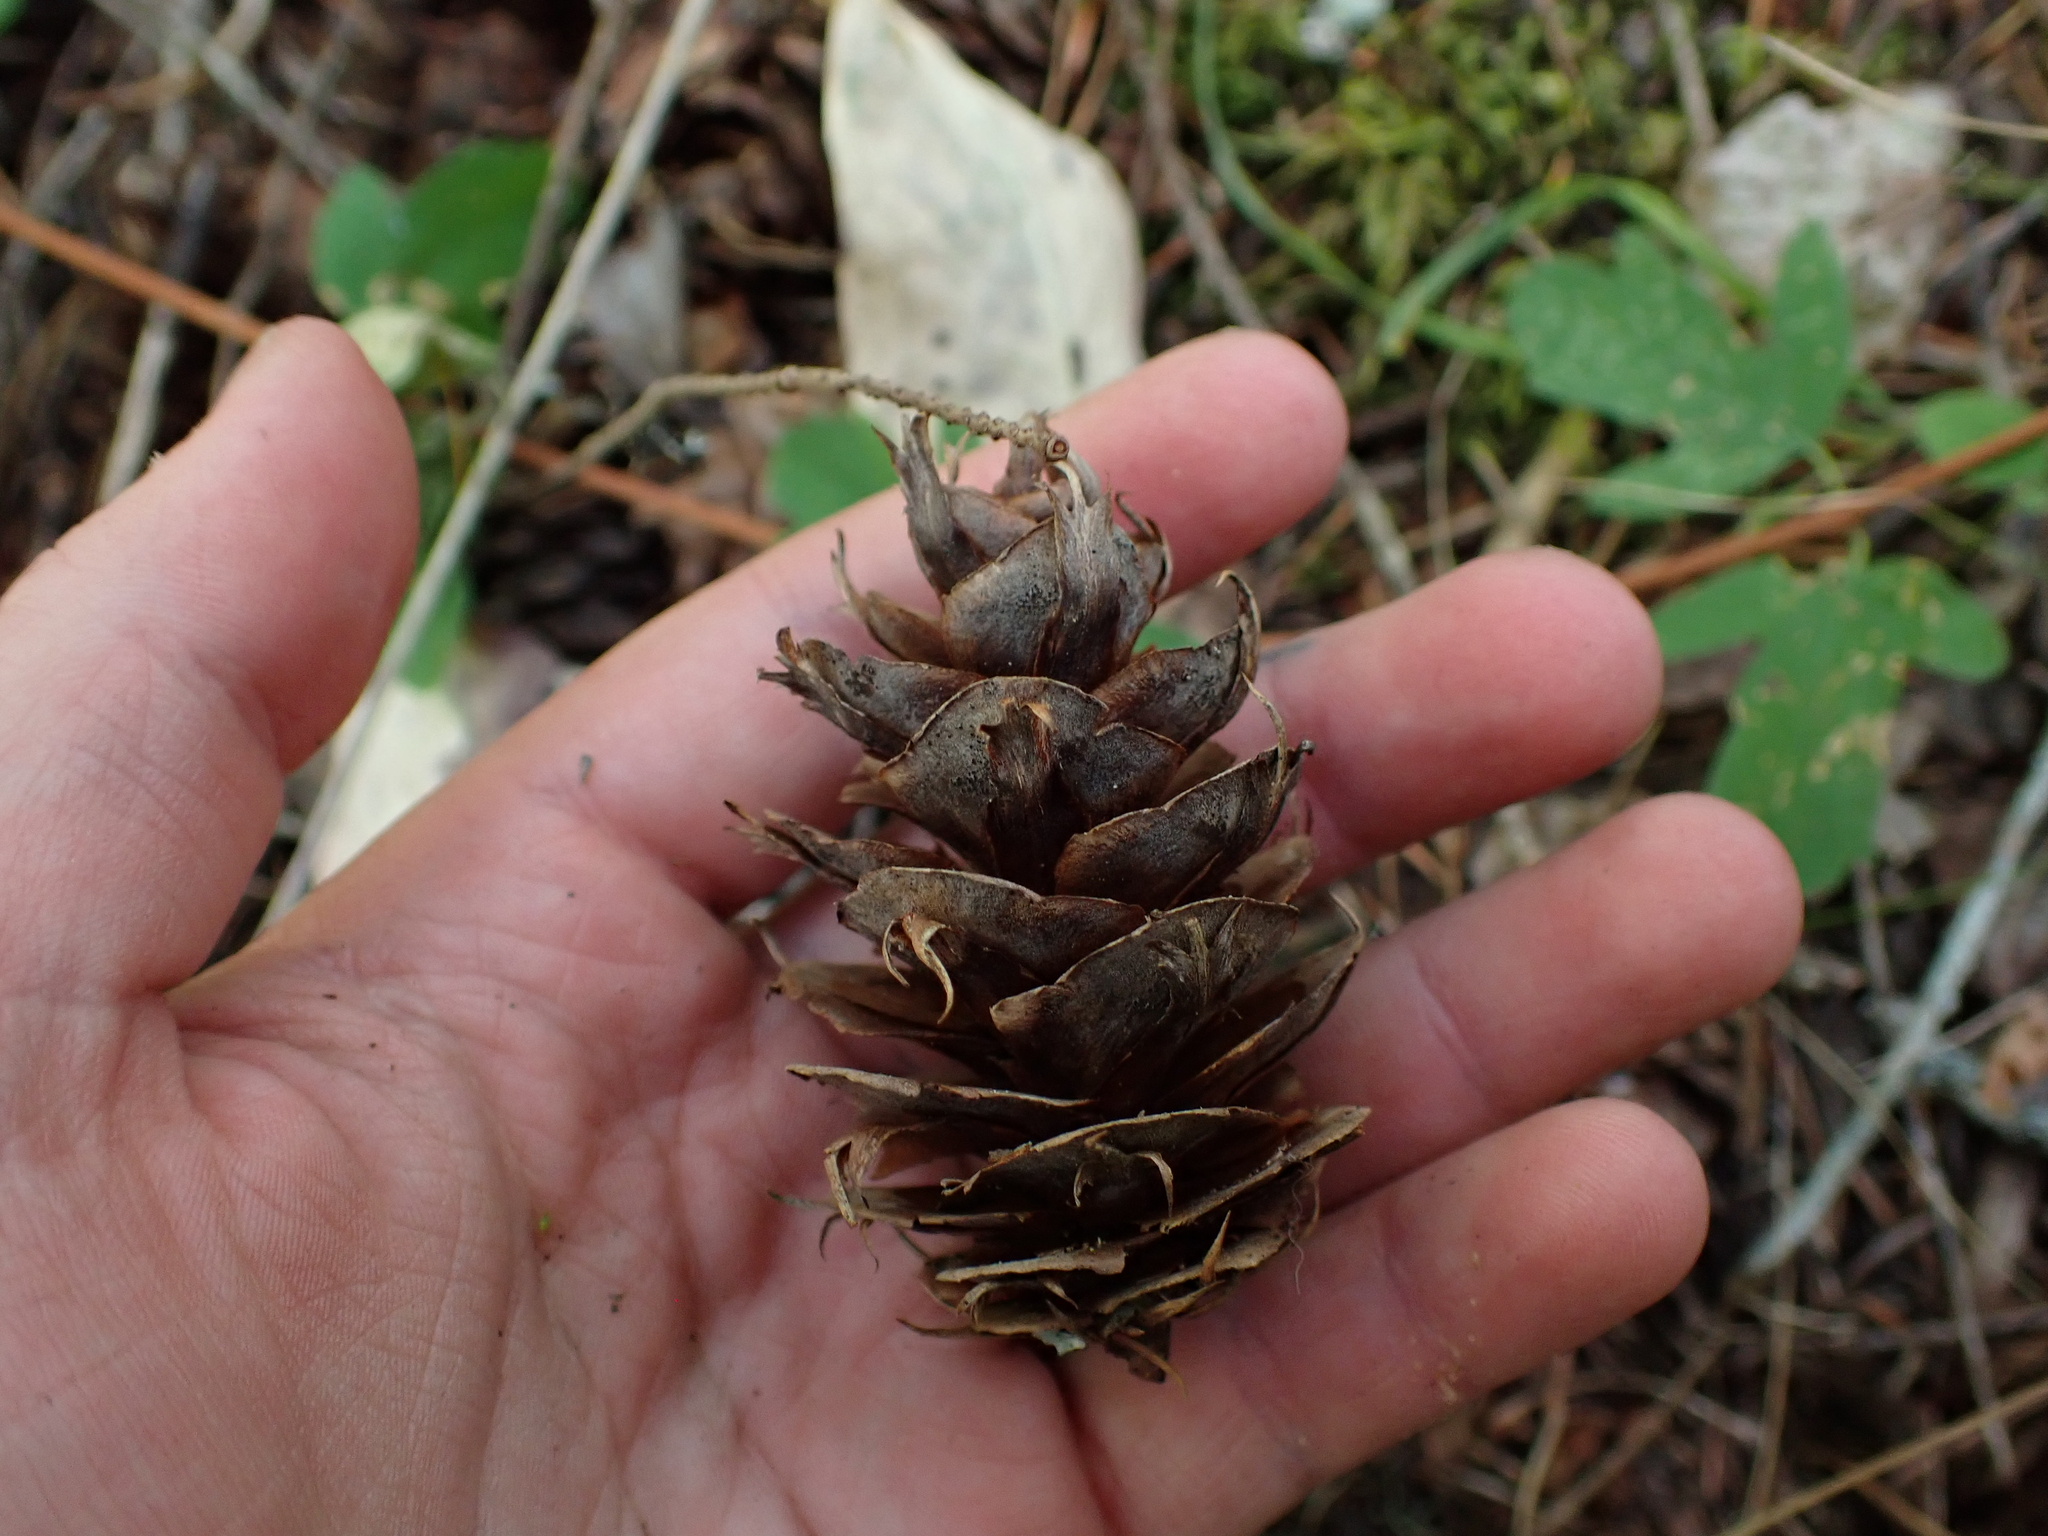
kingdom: Plantae
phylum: Tracheophyta
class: Pinopsida
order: Pinales
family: Pinaceae
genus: Pseudotsuga
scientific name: Pseudotsuga menziesii
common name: Douglas fir
